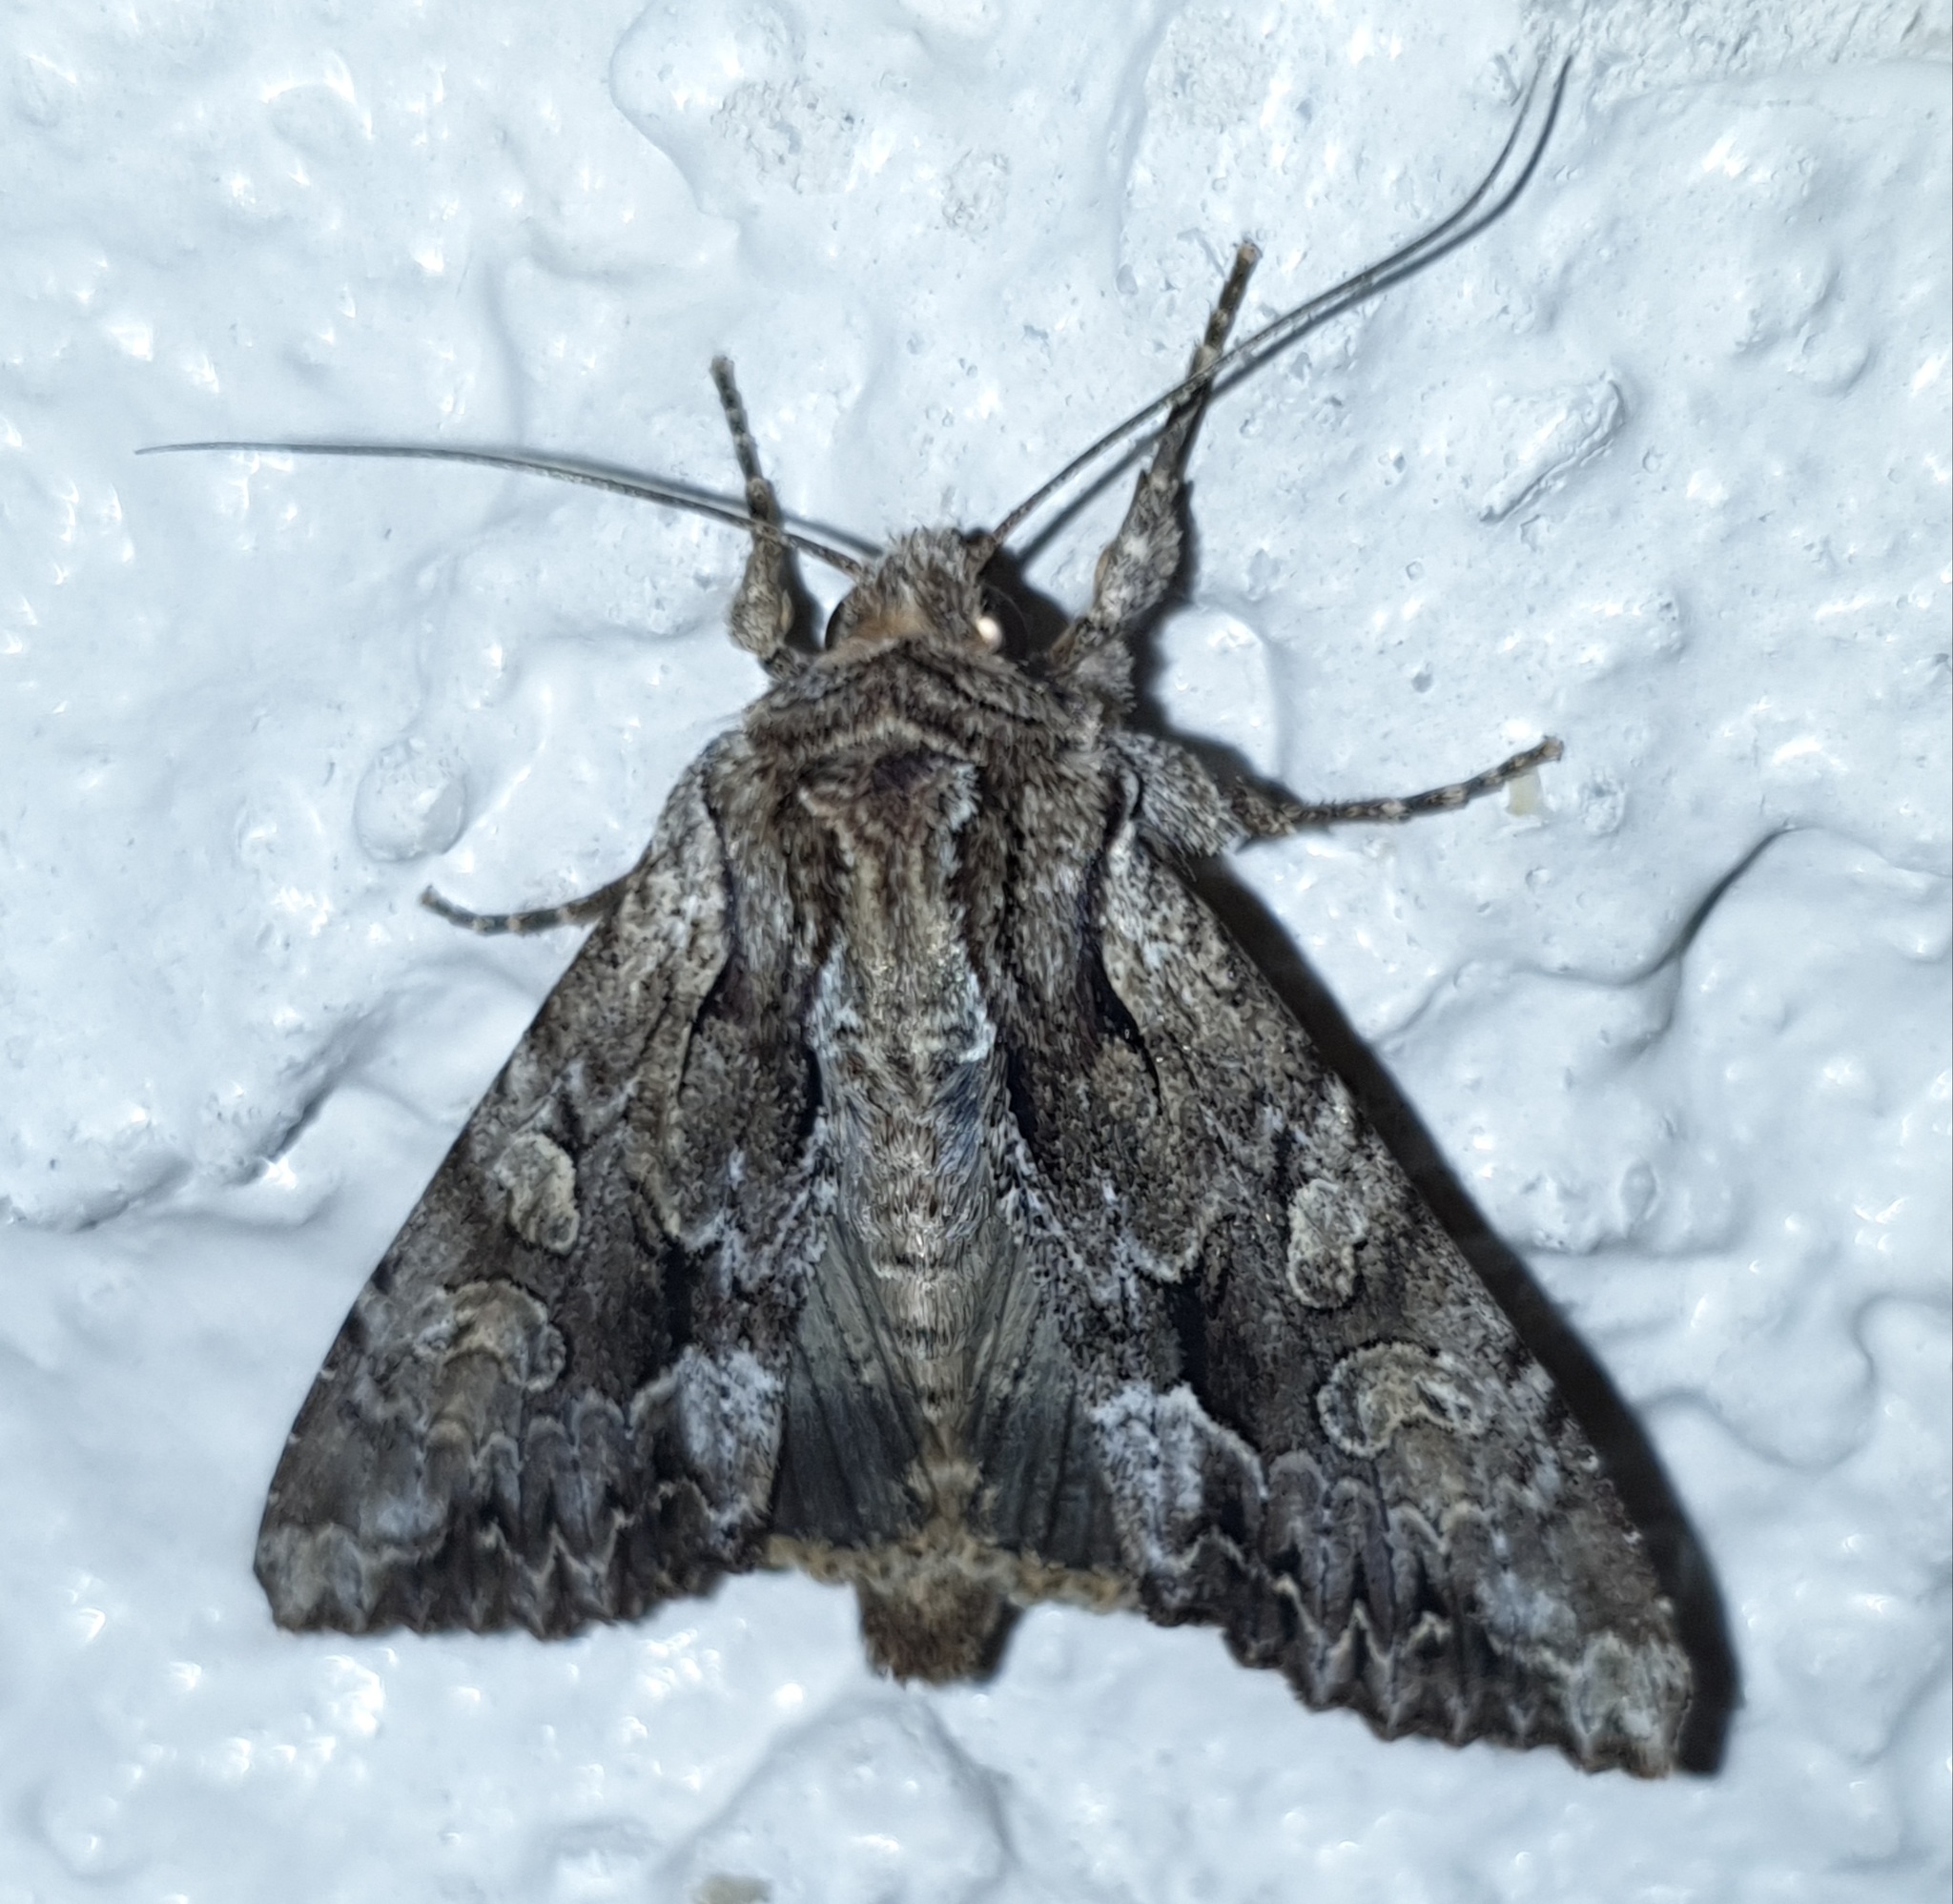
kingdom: Animalia
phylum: Arthropoda
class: Insecta
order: Lepidoptera
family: Noctuidae
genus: Apamea
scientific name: Apamea monoglypha
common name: Dark arches
